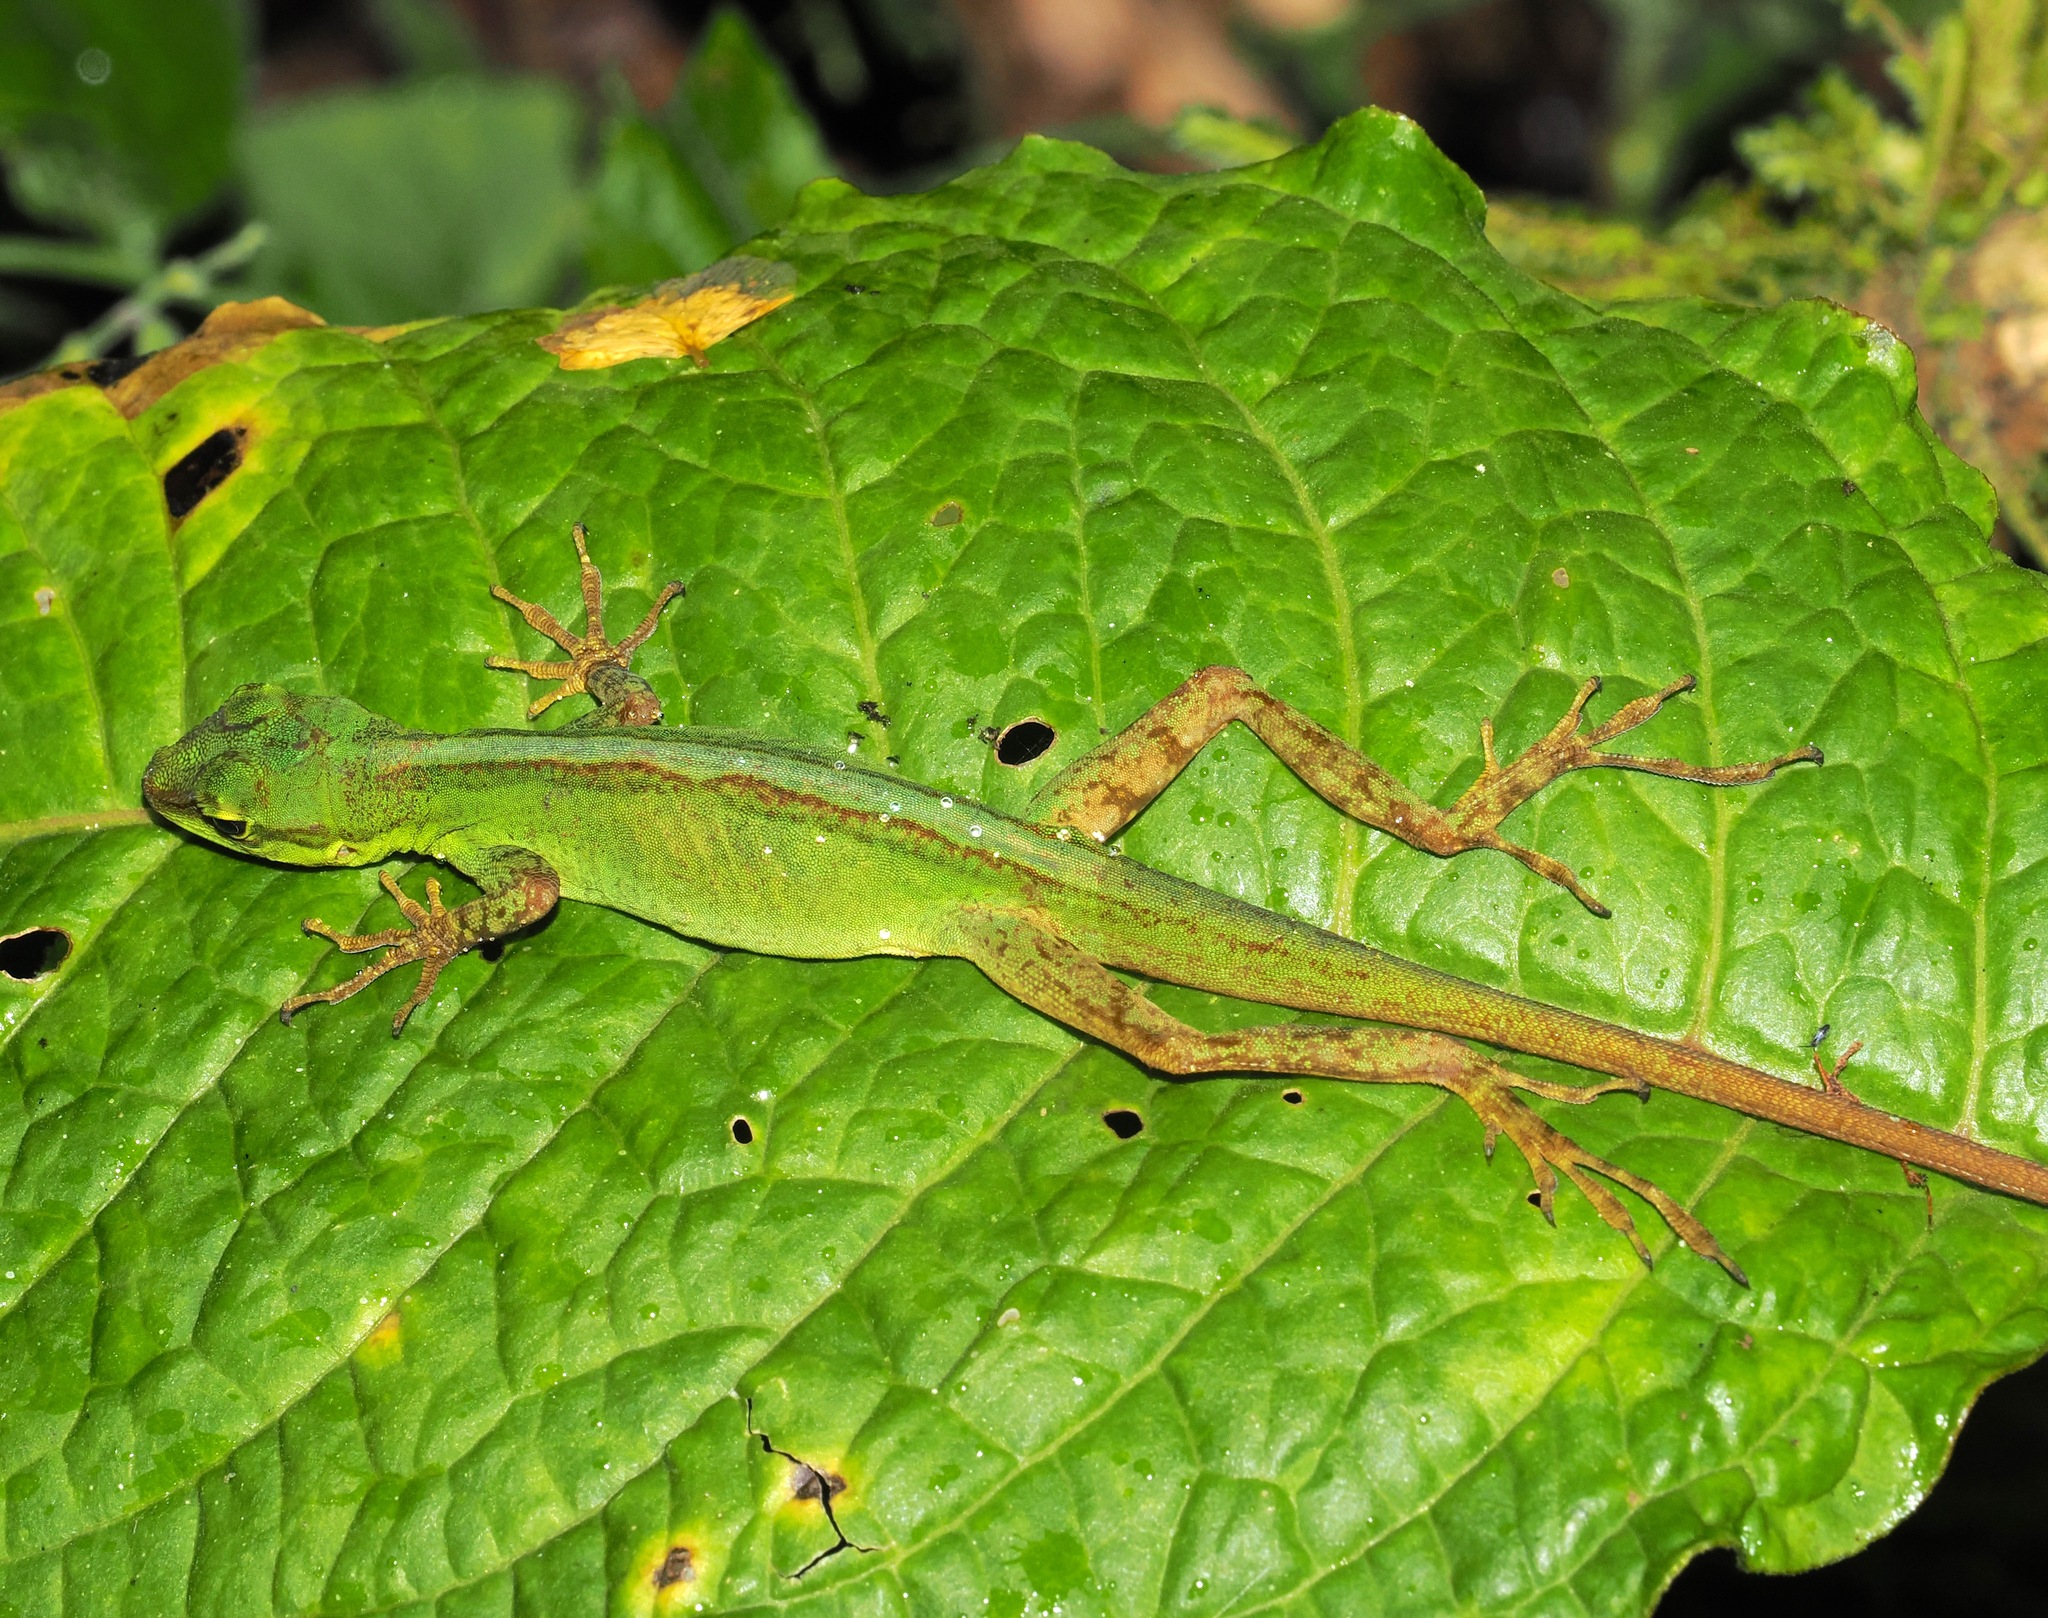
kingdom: Animalia
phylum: Chordata
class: Squamata
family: Dactyloidae
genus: Anolis
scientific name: Anolis ventrimaculatus
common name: Speckled anole
